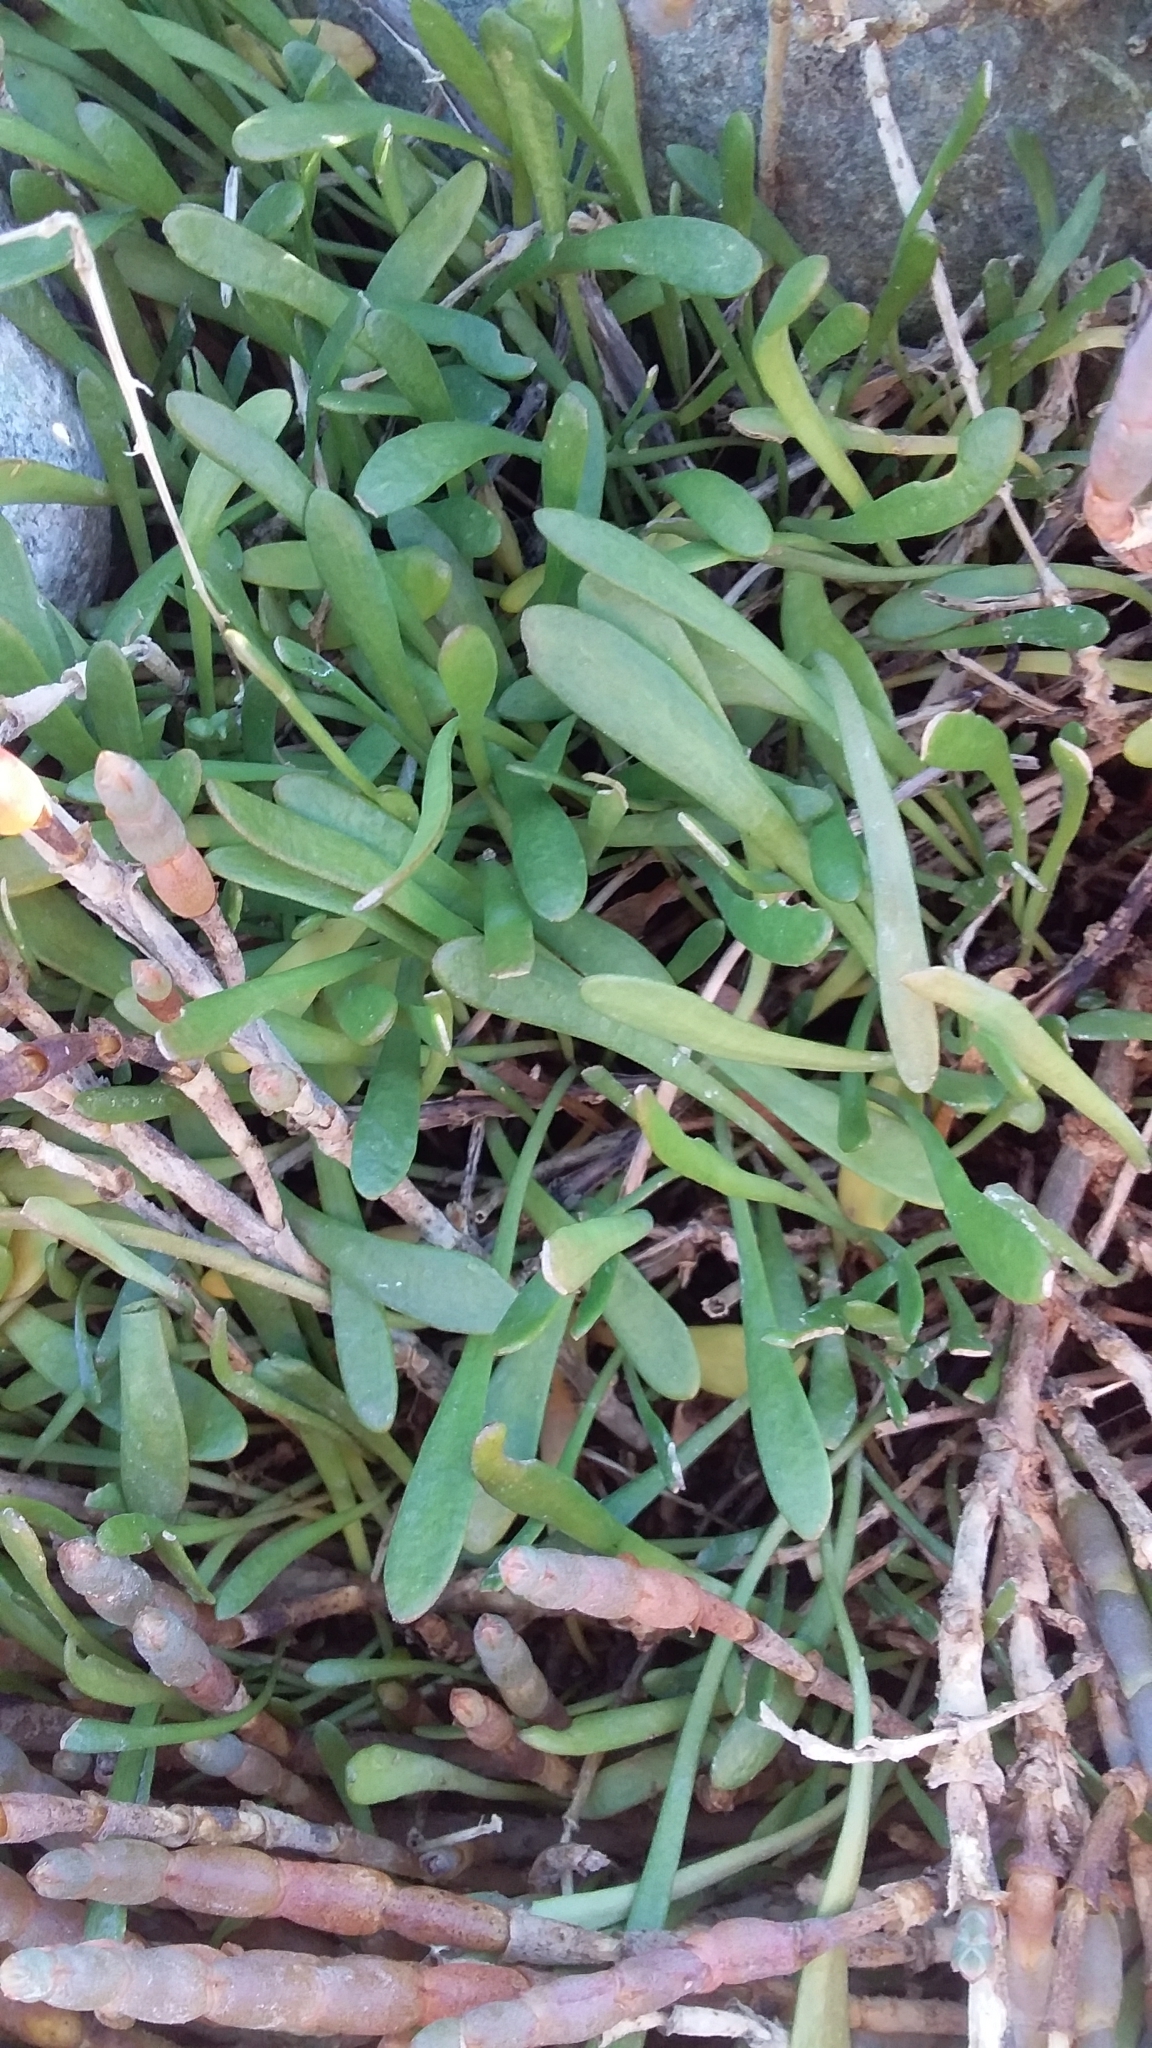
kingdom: Plantae
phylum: Tracheophyta
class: Magnoliopsida
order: Asterales
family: Goodeniaceae
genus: Goodenia
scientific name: Goodenia radicans
